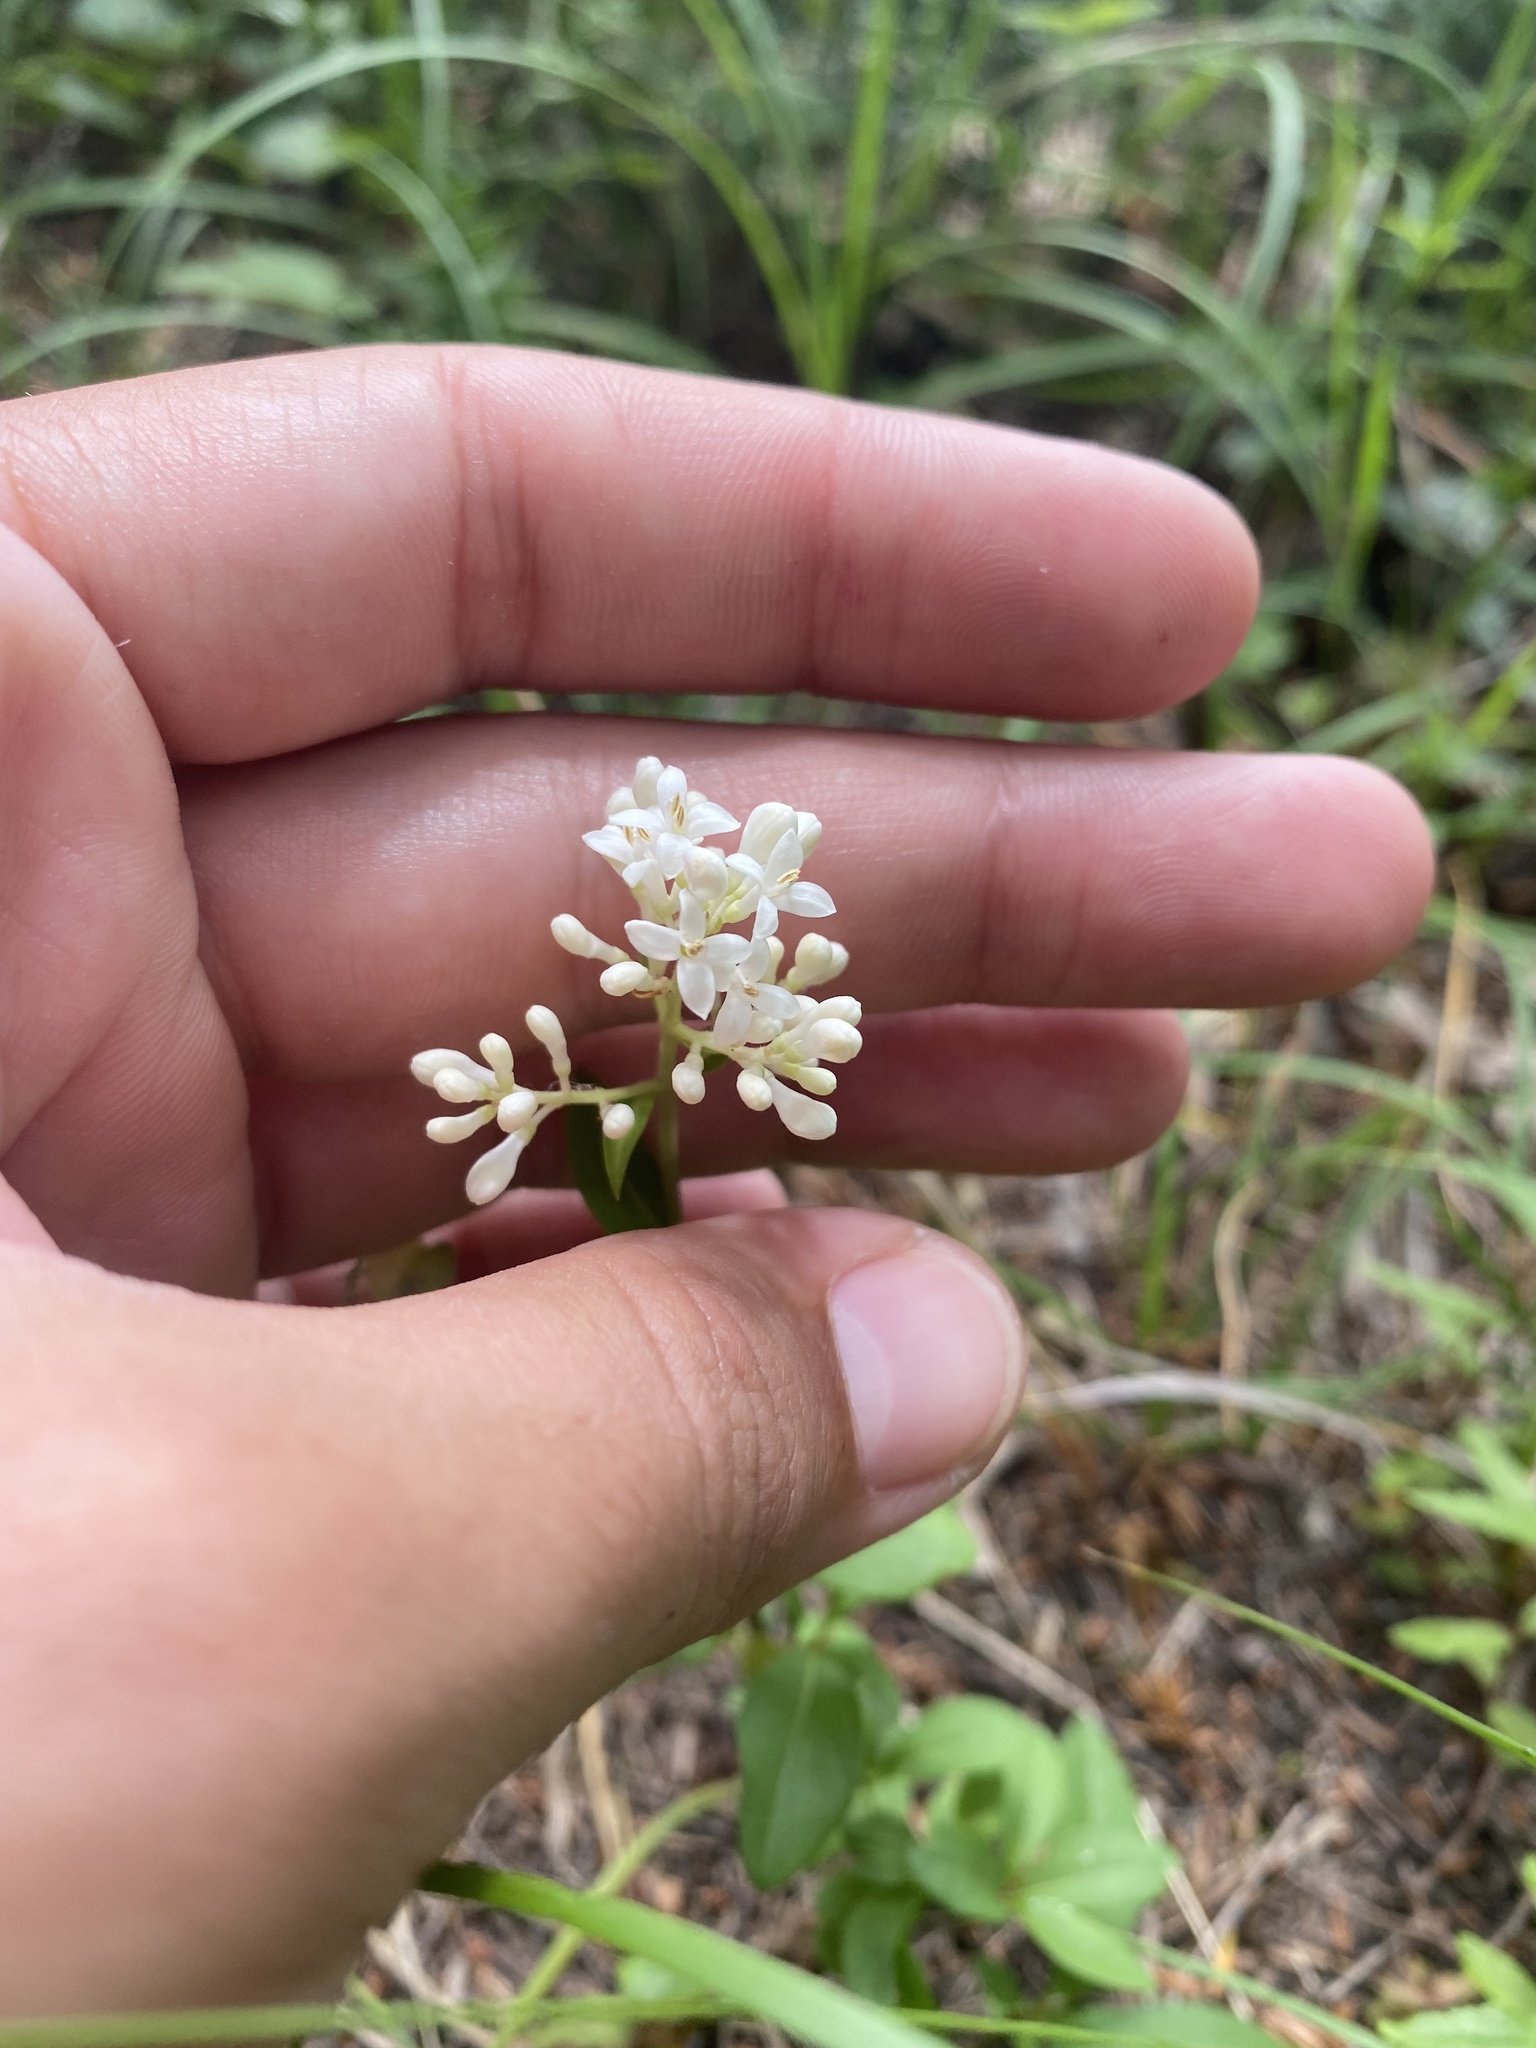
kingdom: Plantae
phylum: Tracheophyta
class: Magnoliopsida
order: Lamiales
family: Oleaceae
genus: Ligustrum
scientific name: Ligustrum vulgare
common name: Wild privet
